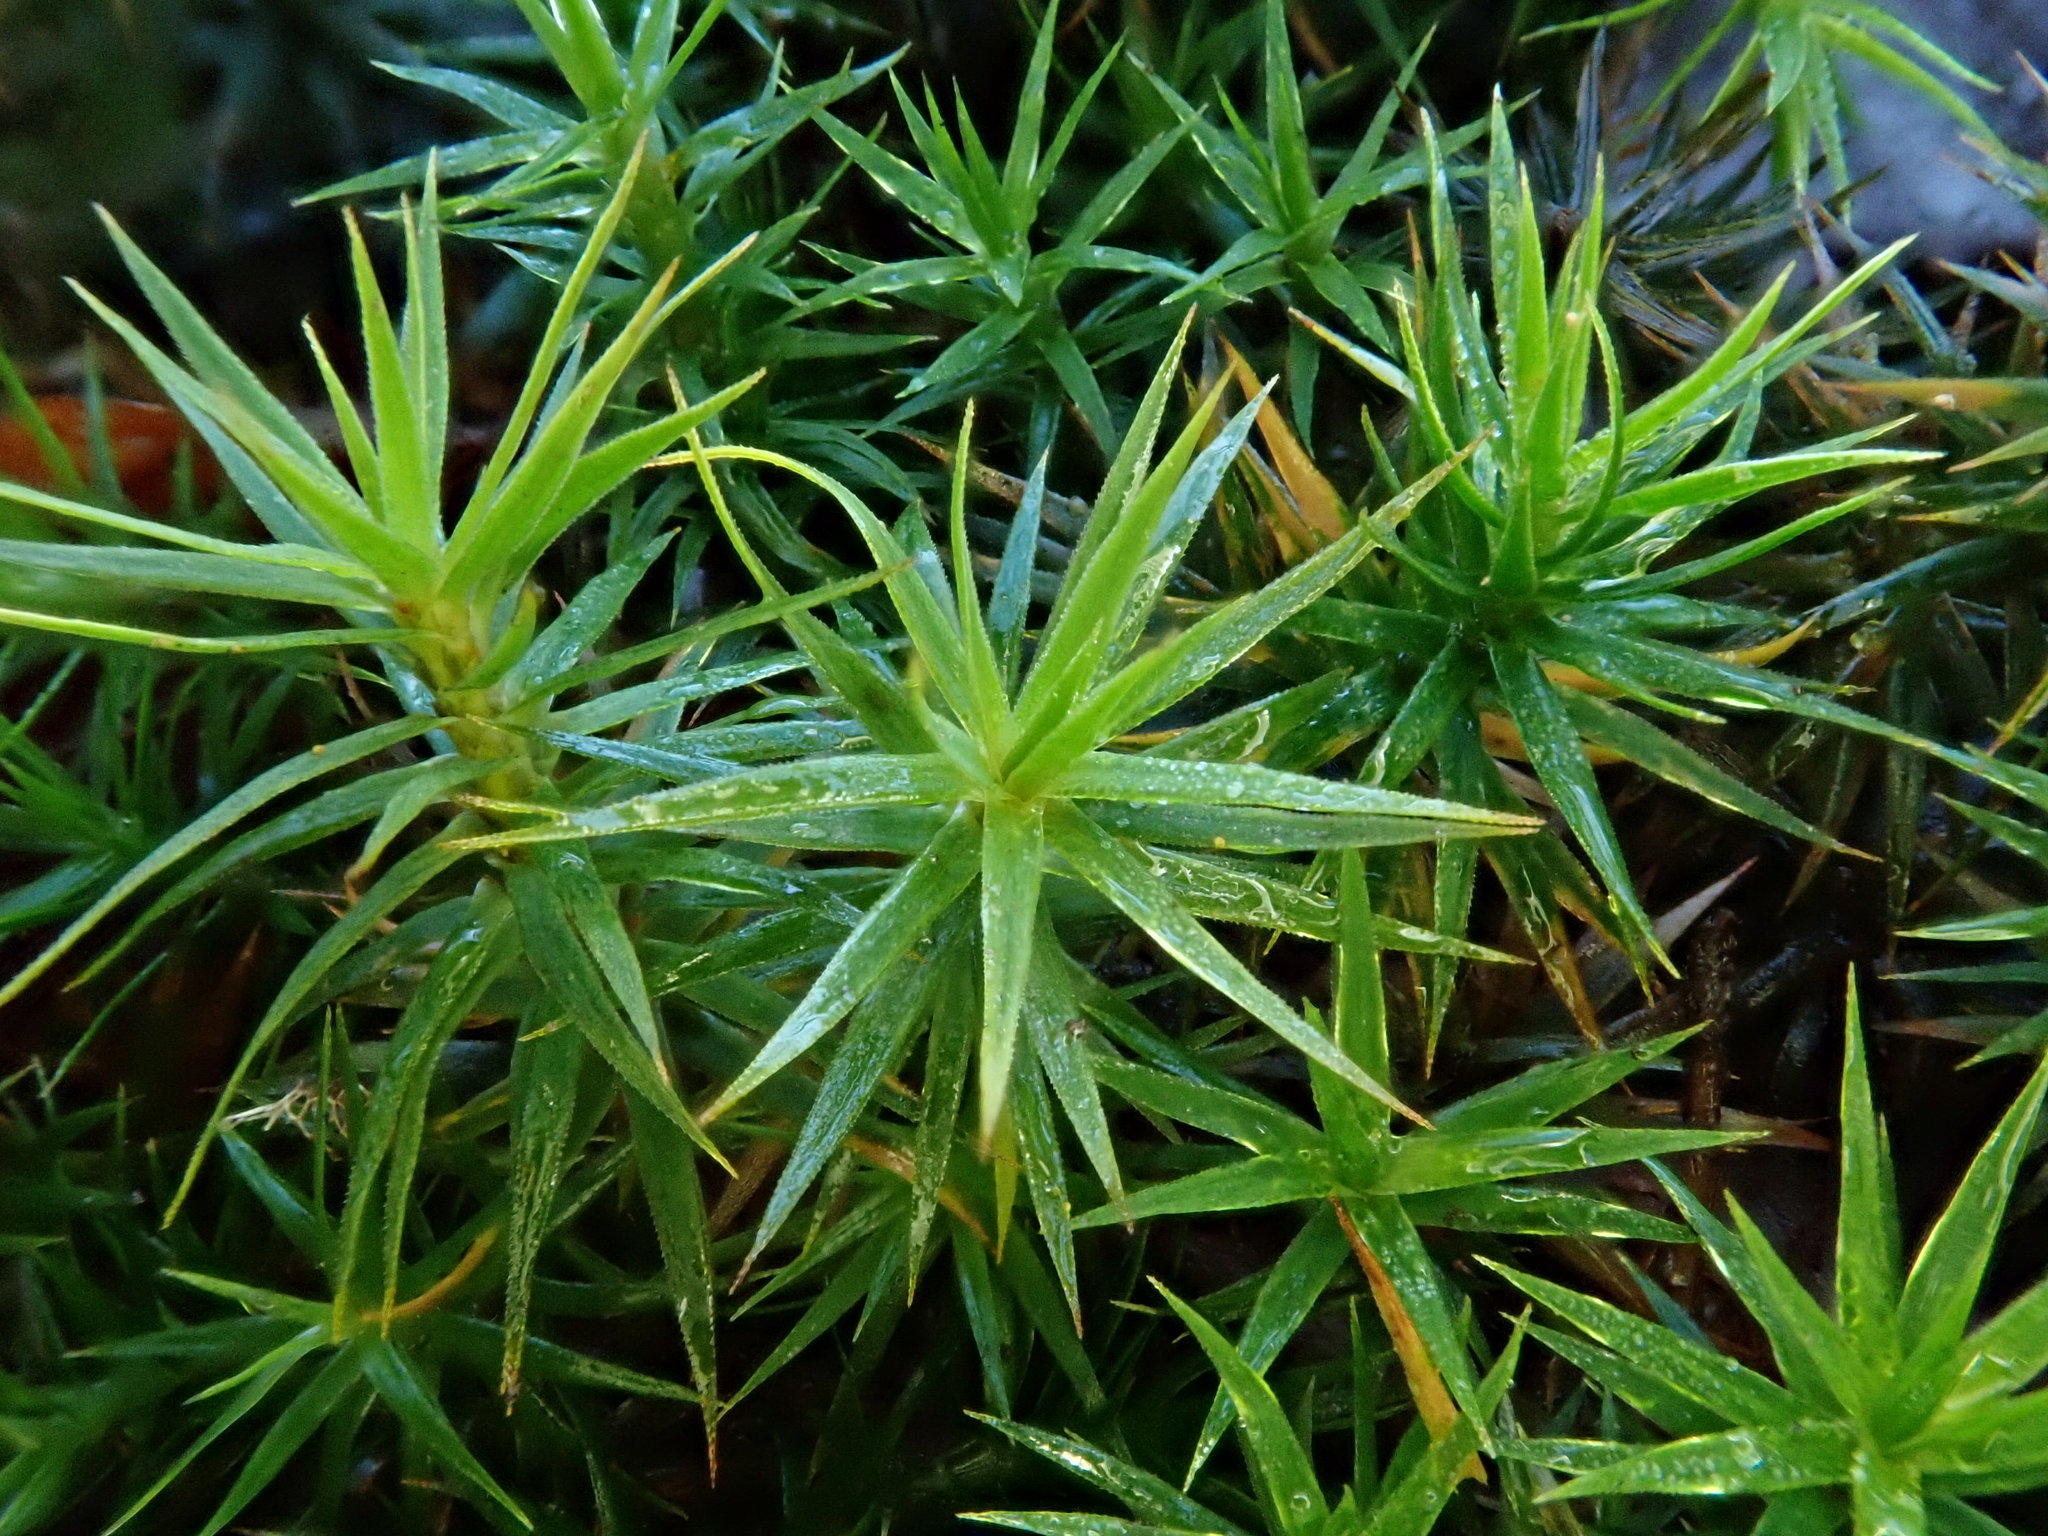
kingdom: Plantae
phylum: Bryophyta
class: Polytrichopsida
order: Polytrichales
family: Polytrichaceae
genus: Polytrichum
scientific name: Polytrichum formosum
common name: Bank haircap moss
